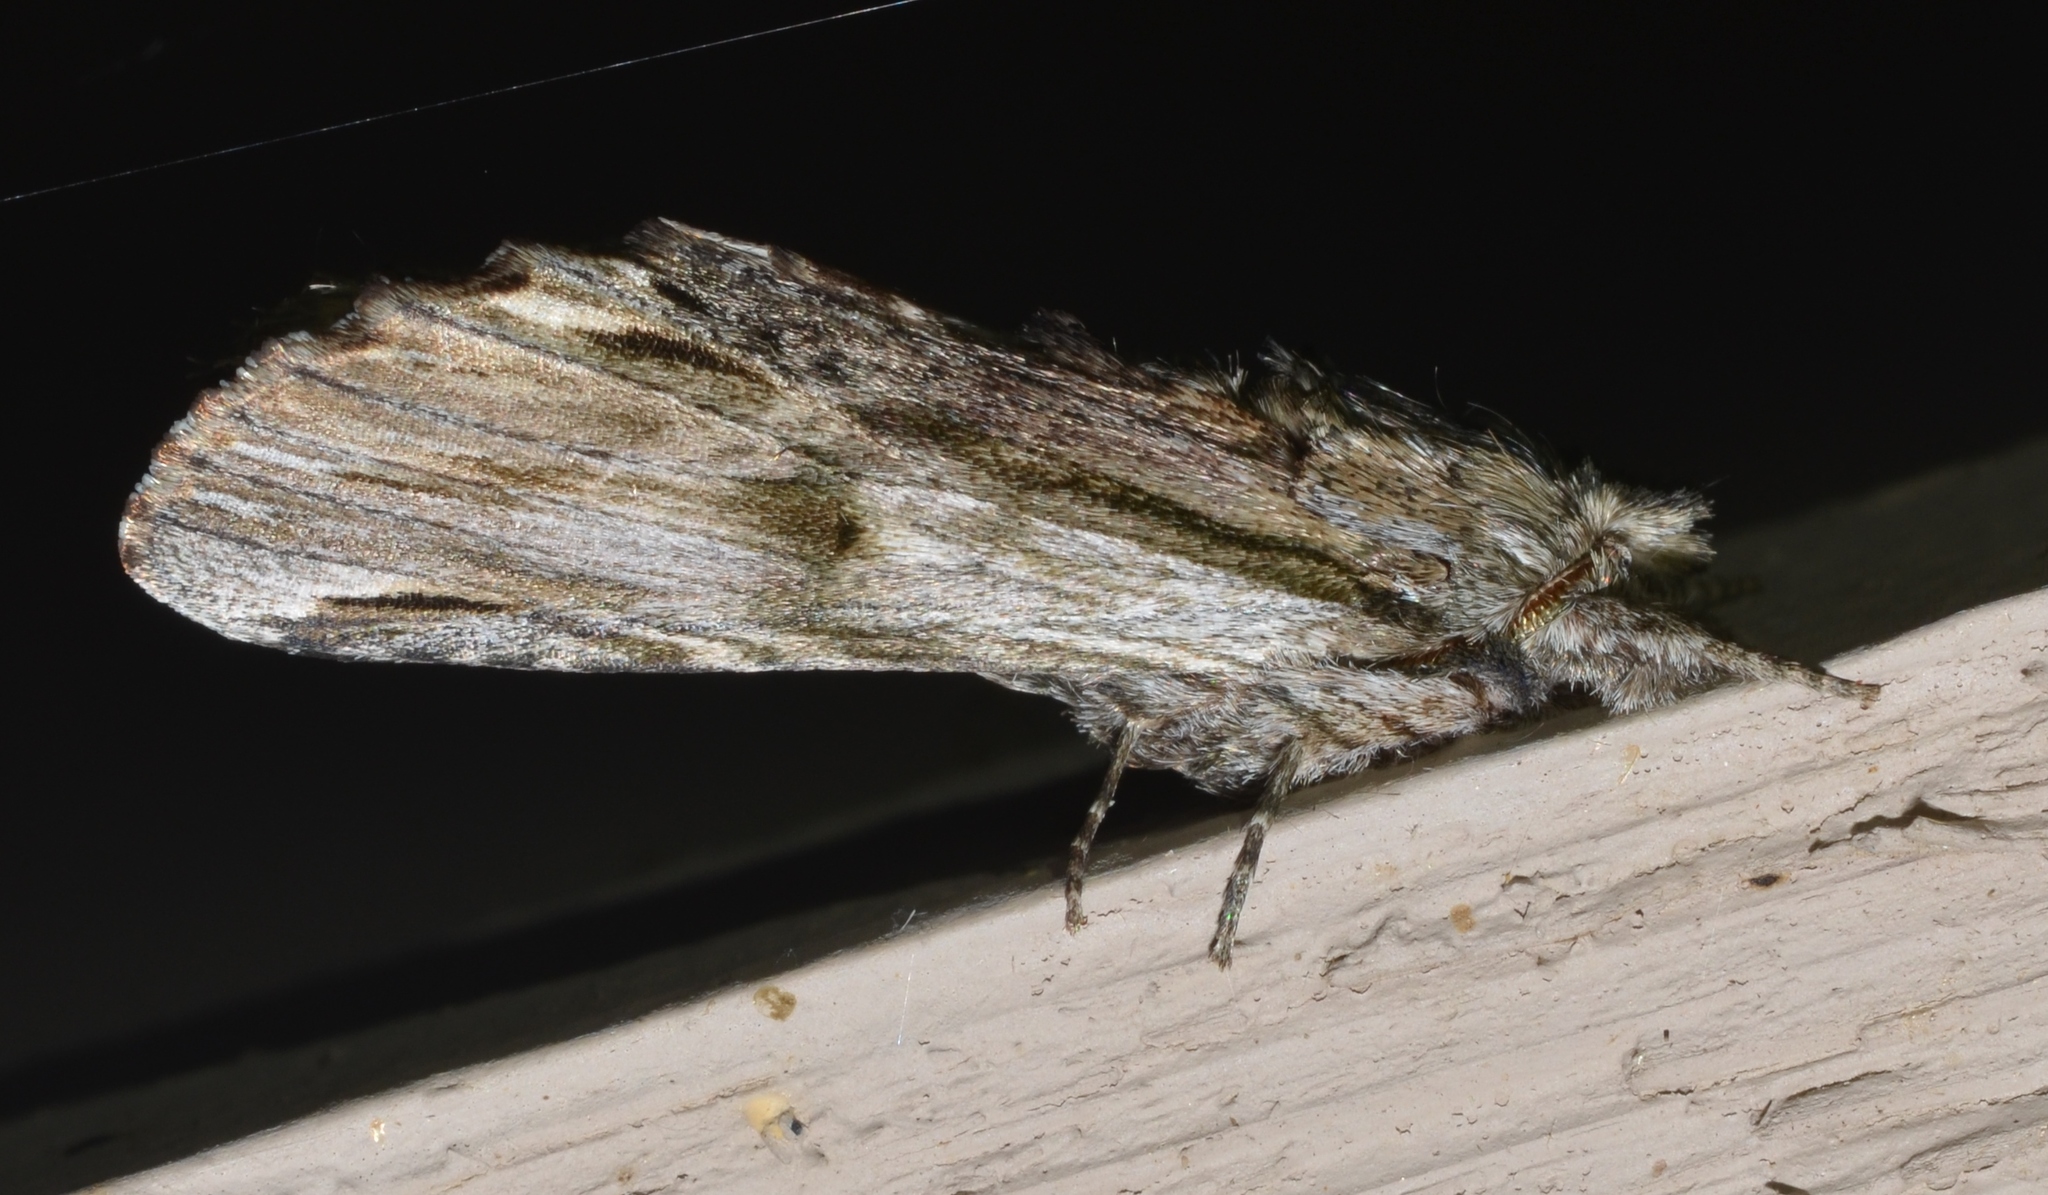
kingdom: Animalia
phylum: Arthropoda
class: Insecta
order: Lepidoptera
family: Notodontidae
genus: Oligocentria
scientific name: Oligocentria Ianassa lignicolor
